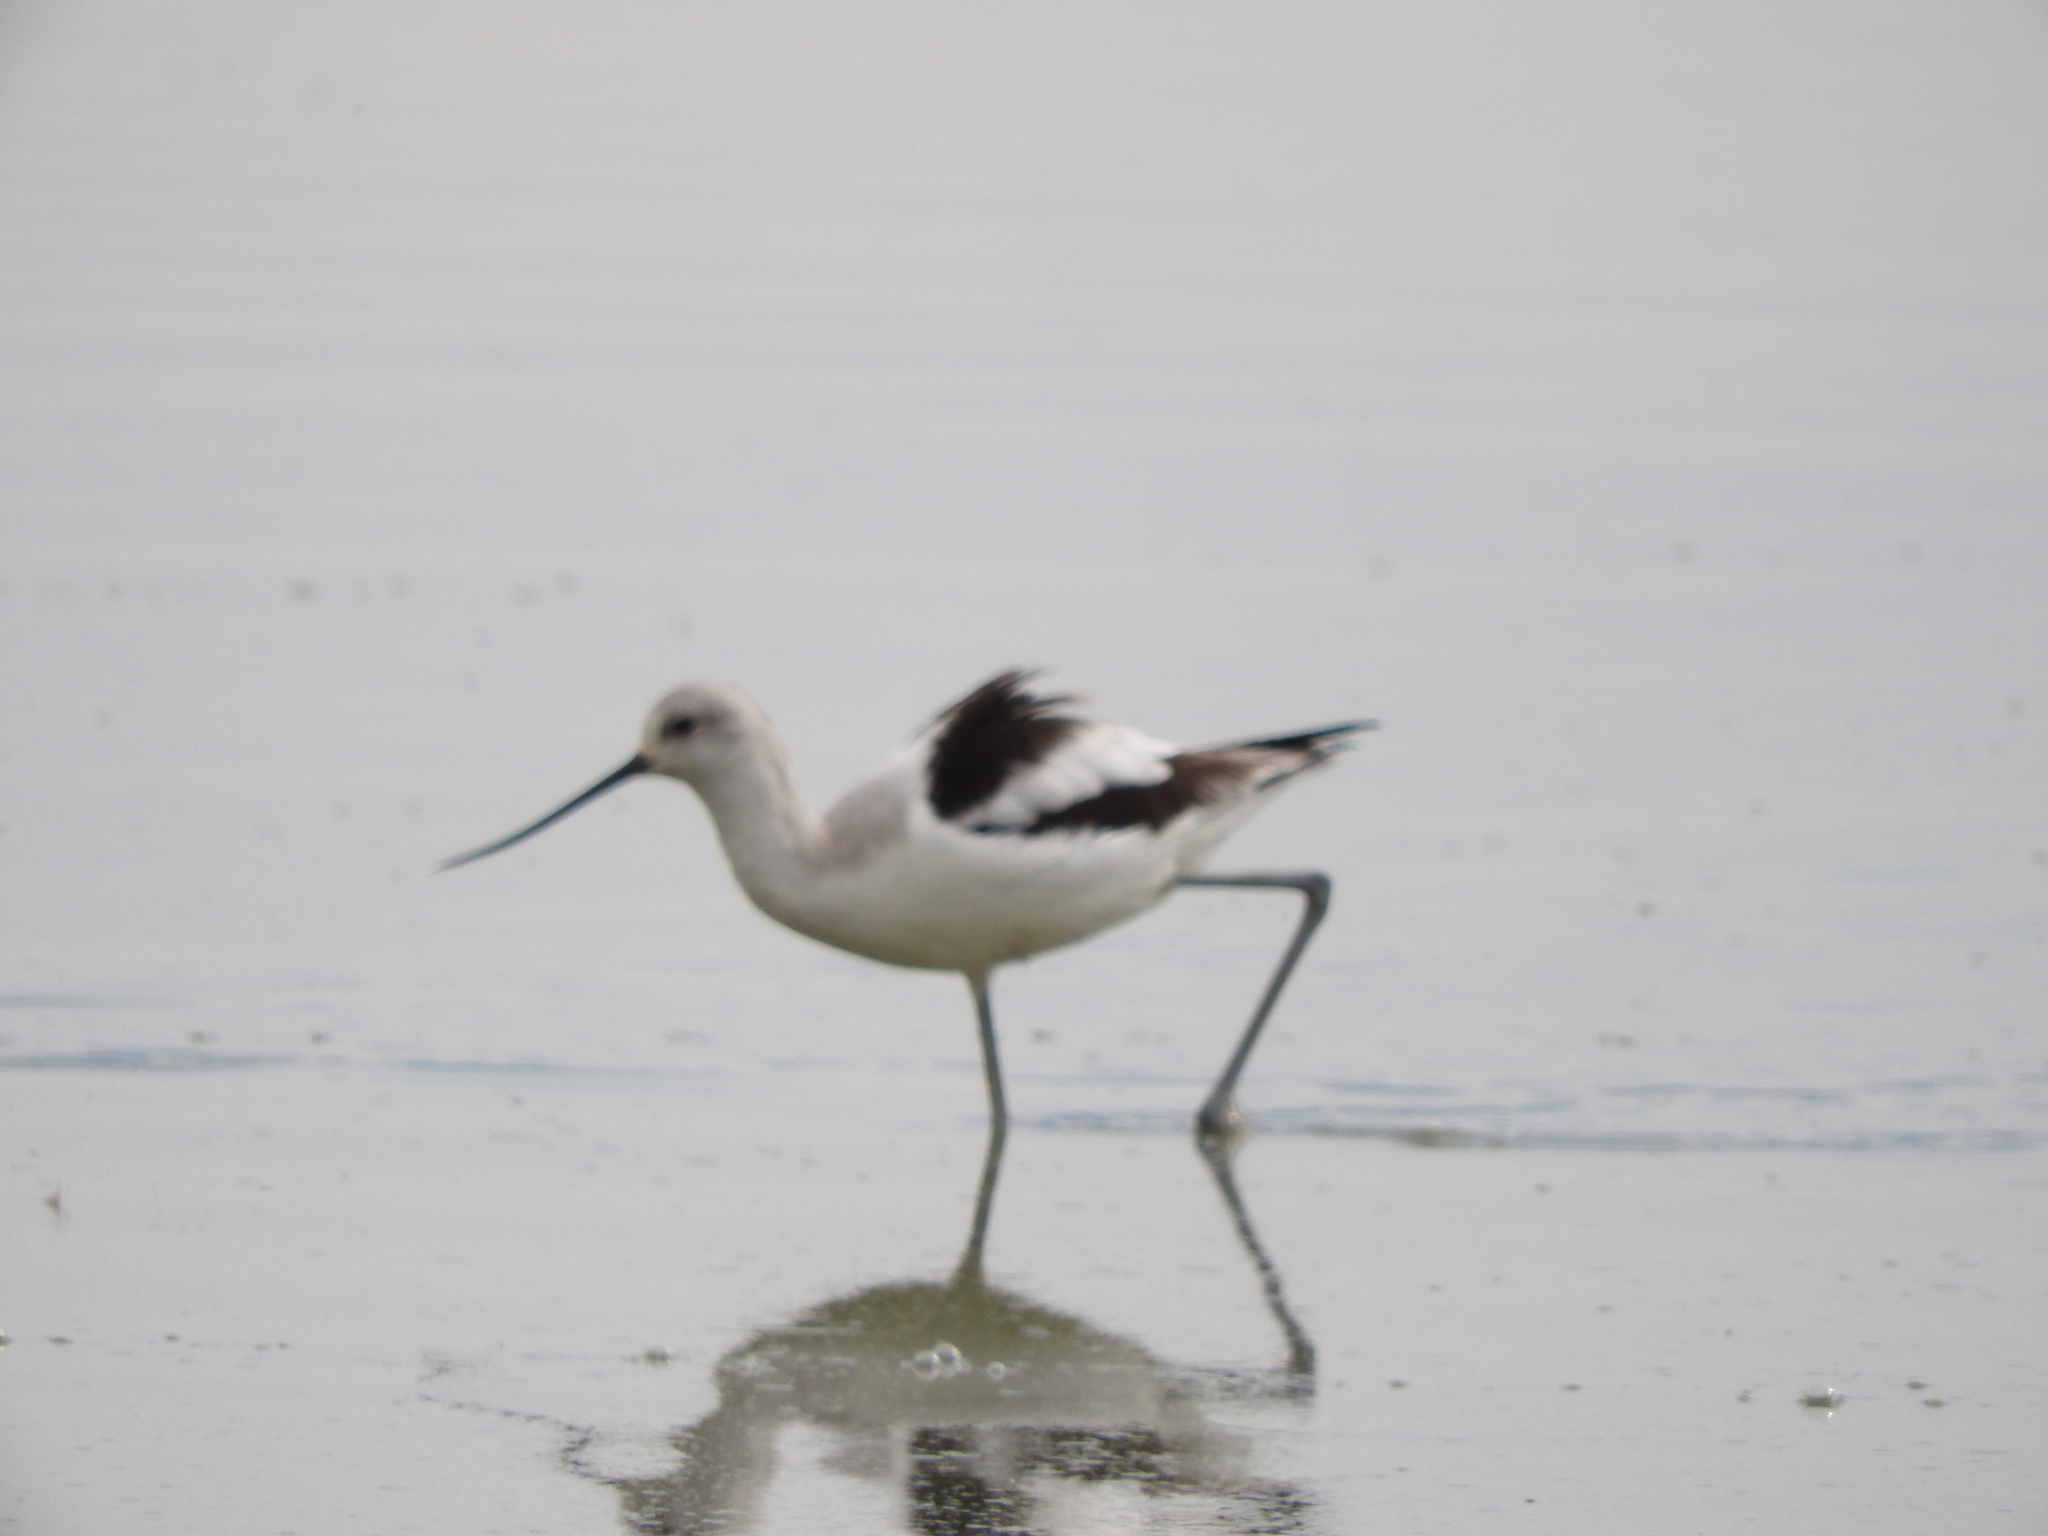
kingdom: Animalia
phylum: Chordata
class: Aves
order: Charadriiformes
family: Recurvirostridae
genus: Recurvirostra
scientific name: Recurvirostra americana
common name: American avocet
